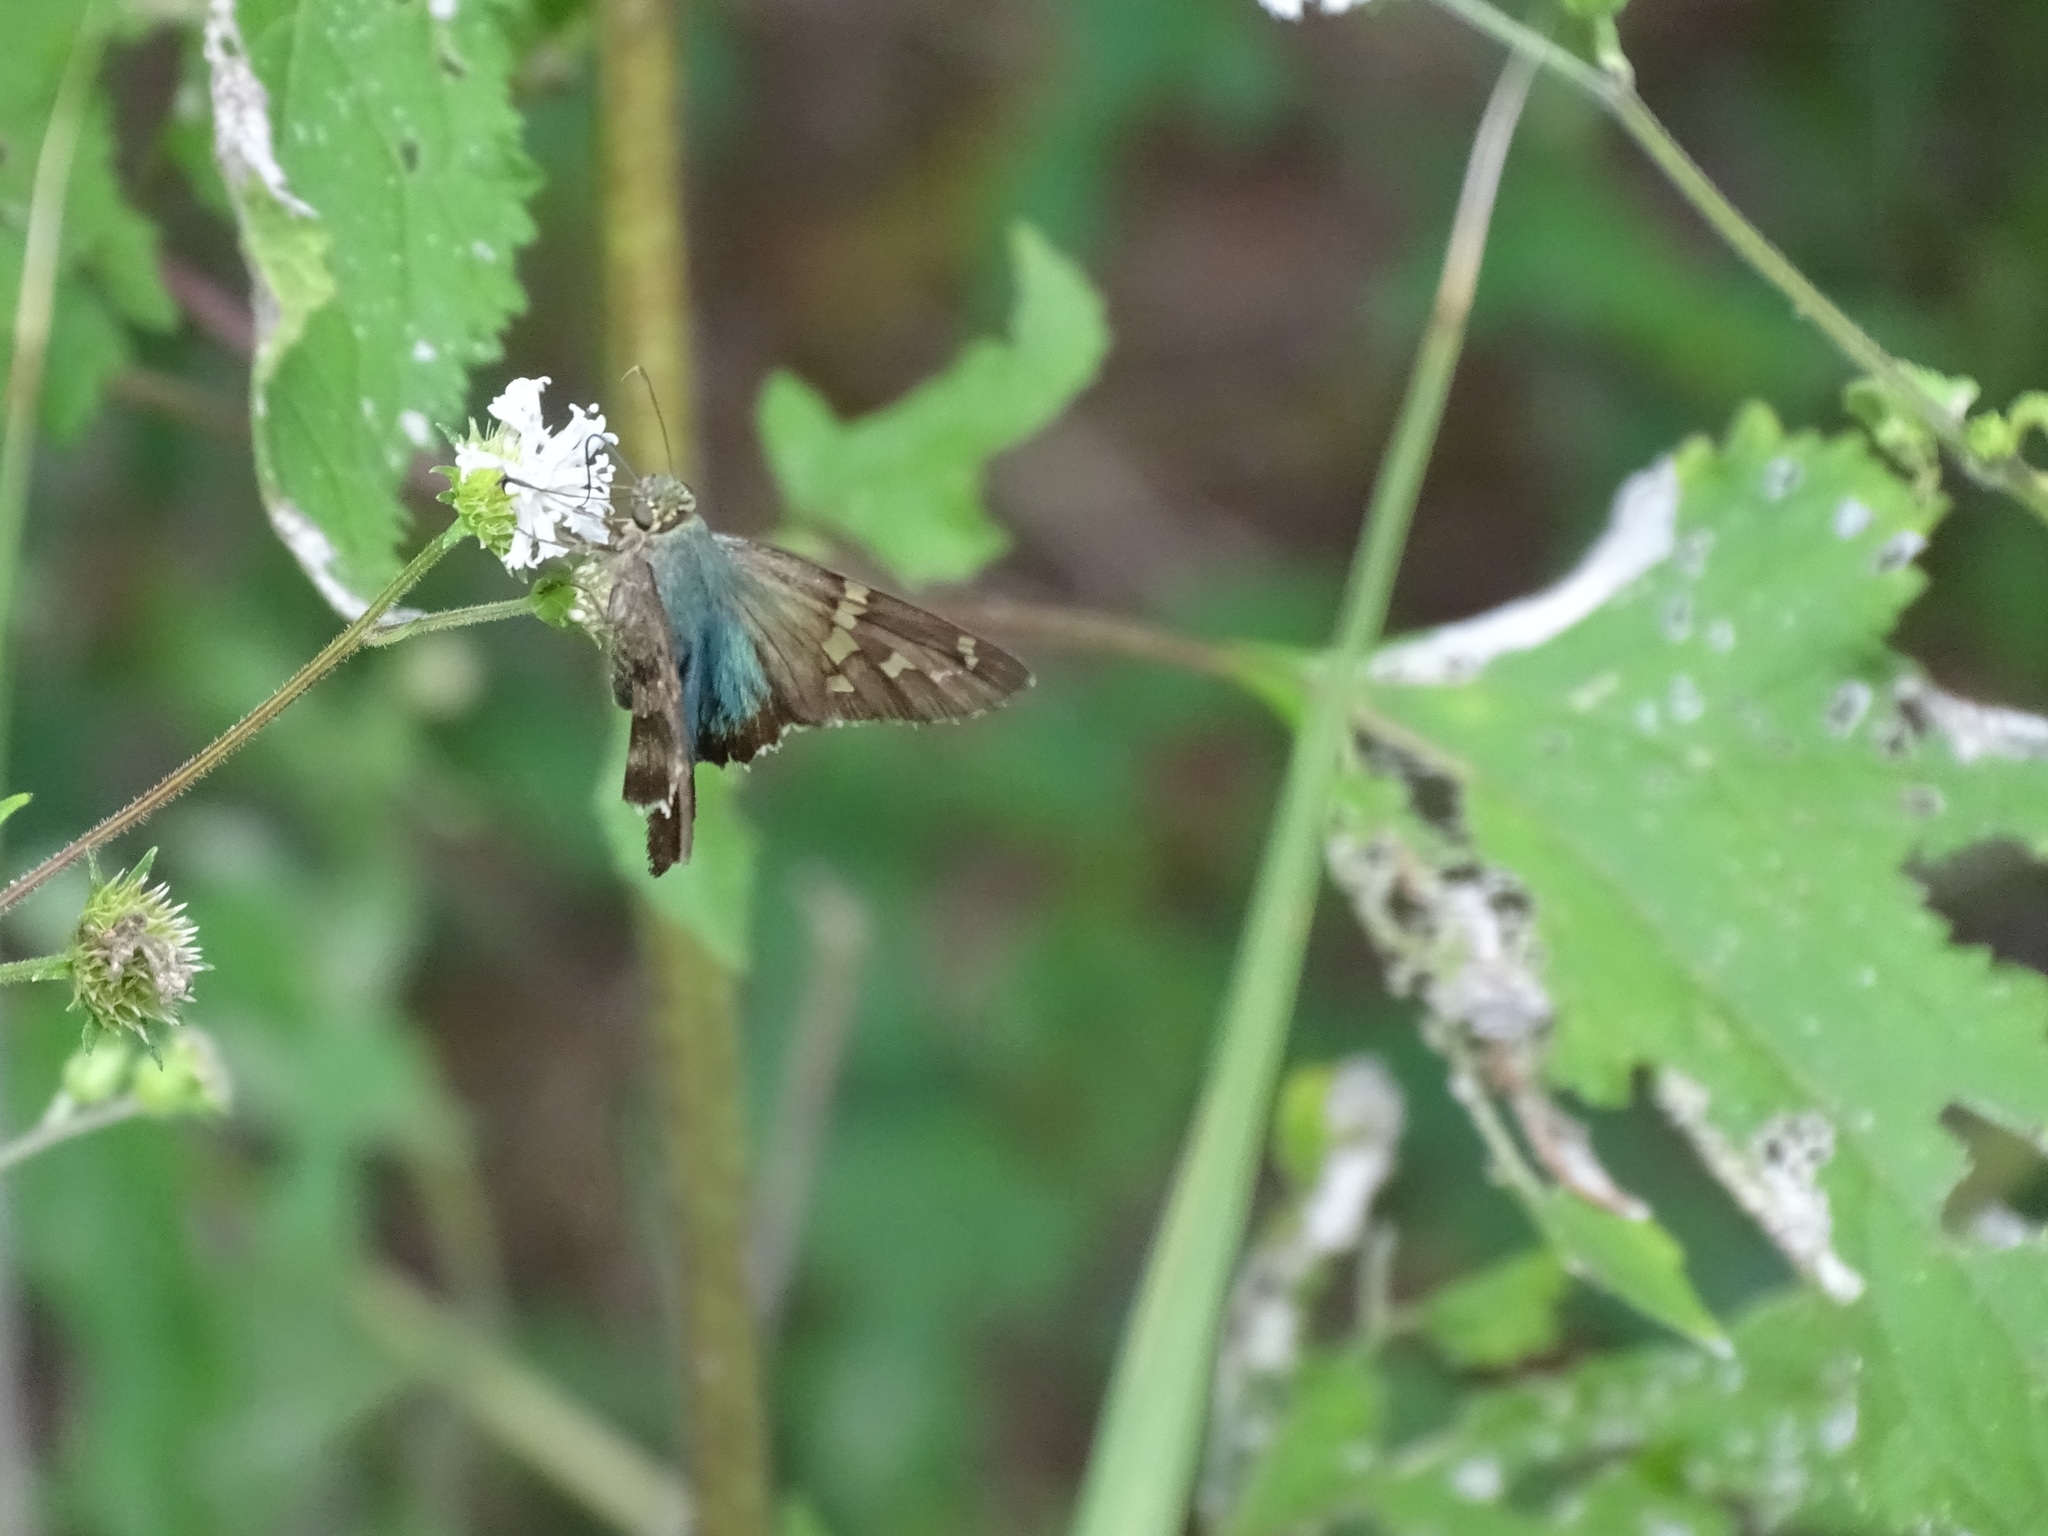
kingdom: Animalia
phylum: Arthropoda
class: Insecta
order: Lepidoptera
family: Hesperiidae
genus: Urbanus
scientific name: Urbanus proteus
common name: Long-tailed skipper
